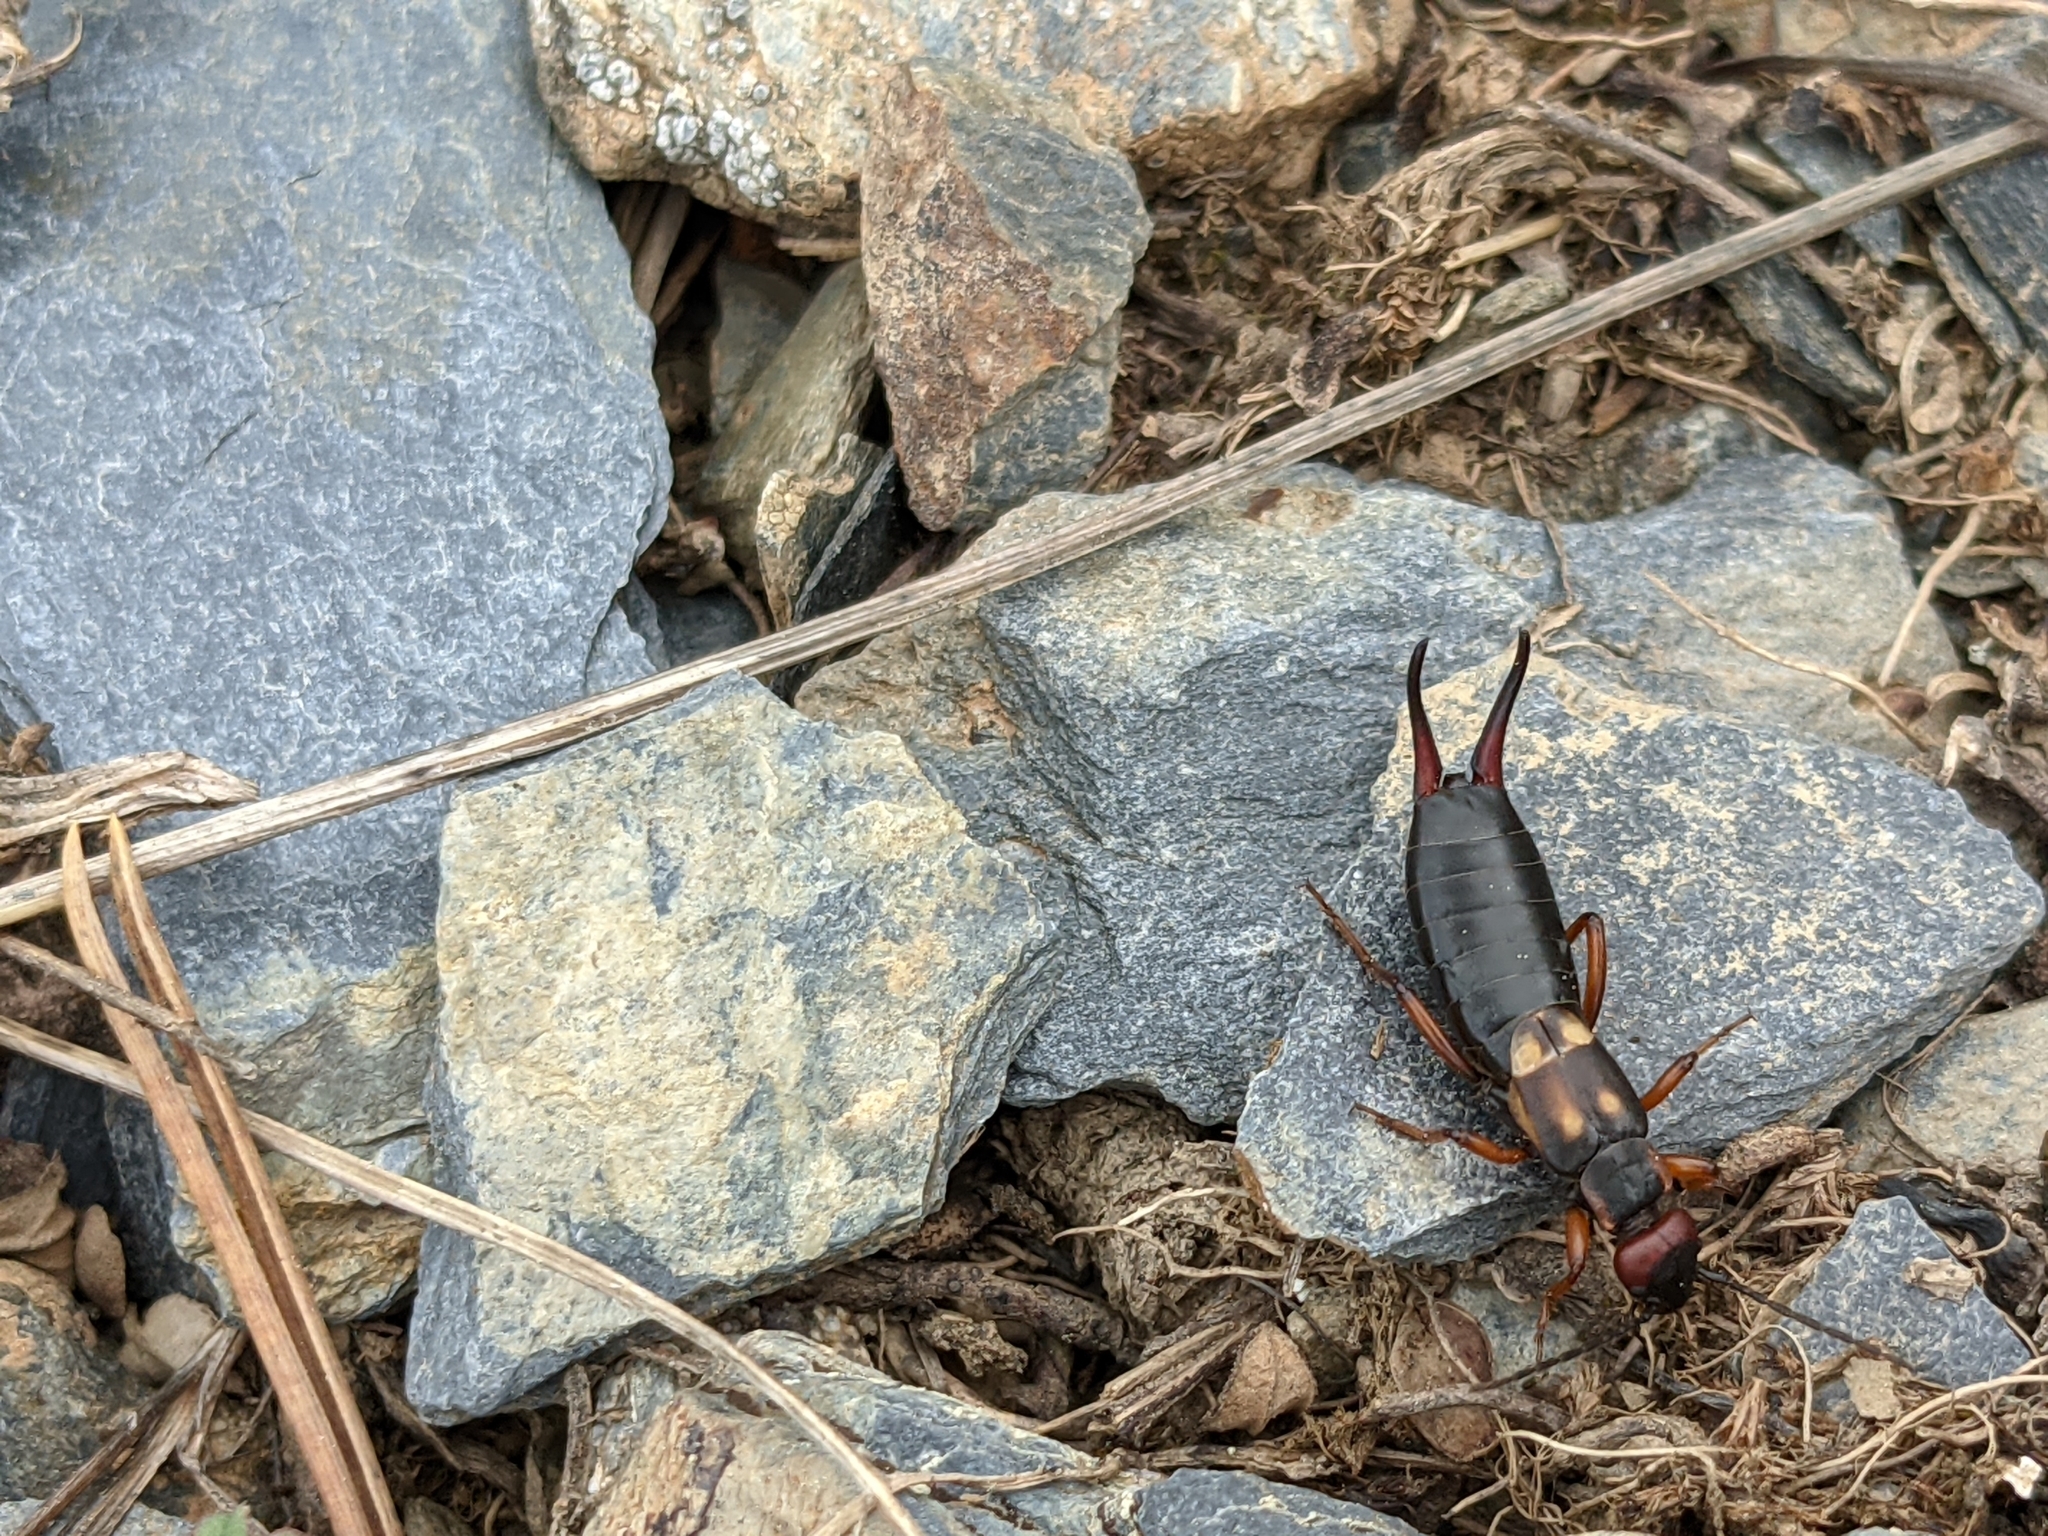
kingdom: Animalia
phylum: Arthropoda
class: Insecta
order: Dermaptera
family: Forficulidae
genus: Anechura
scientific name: Anechura bipunctata
